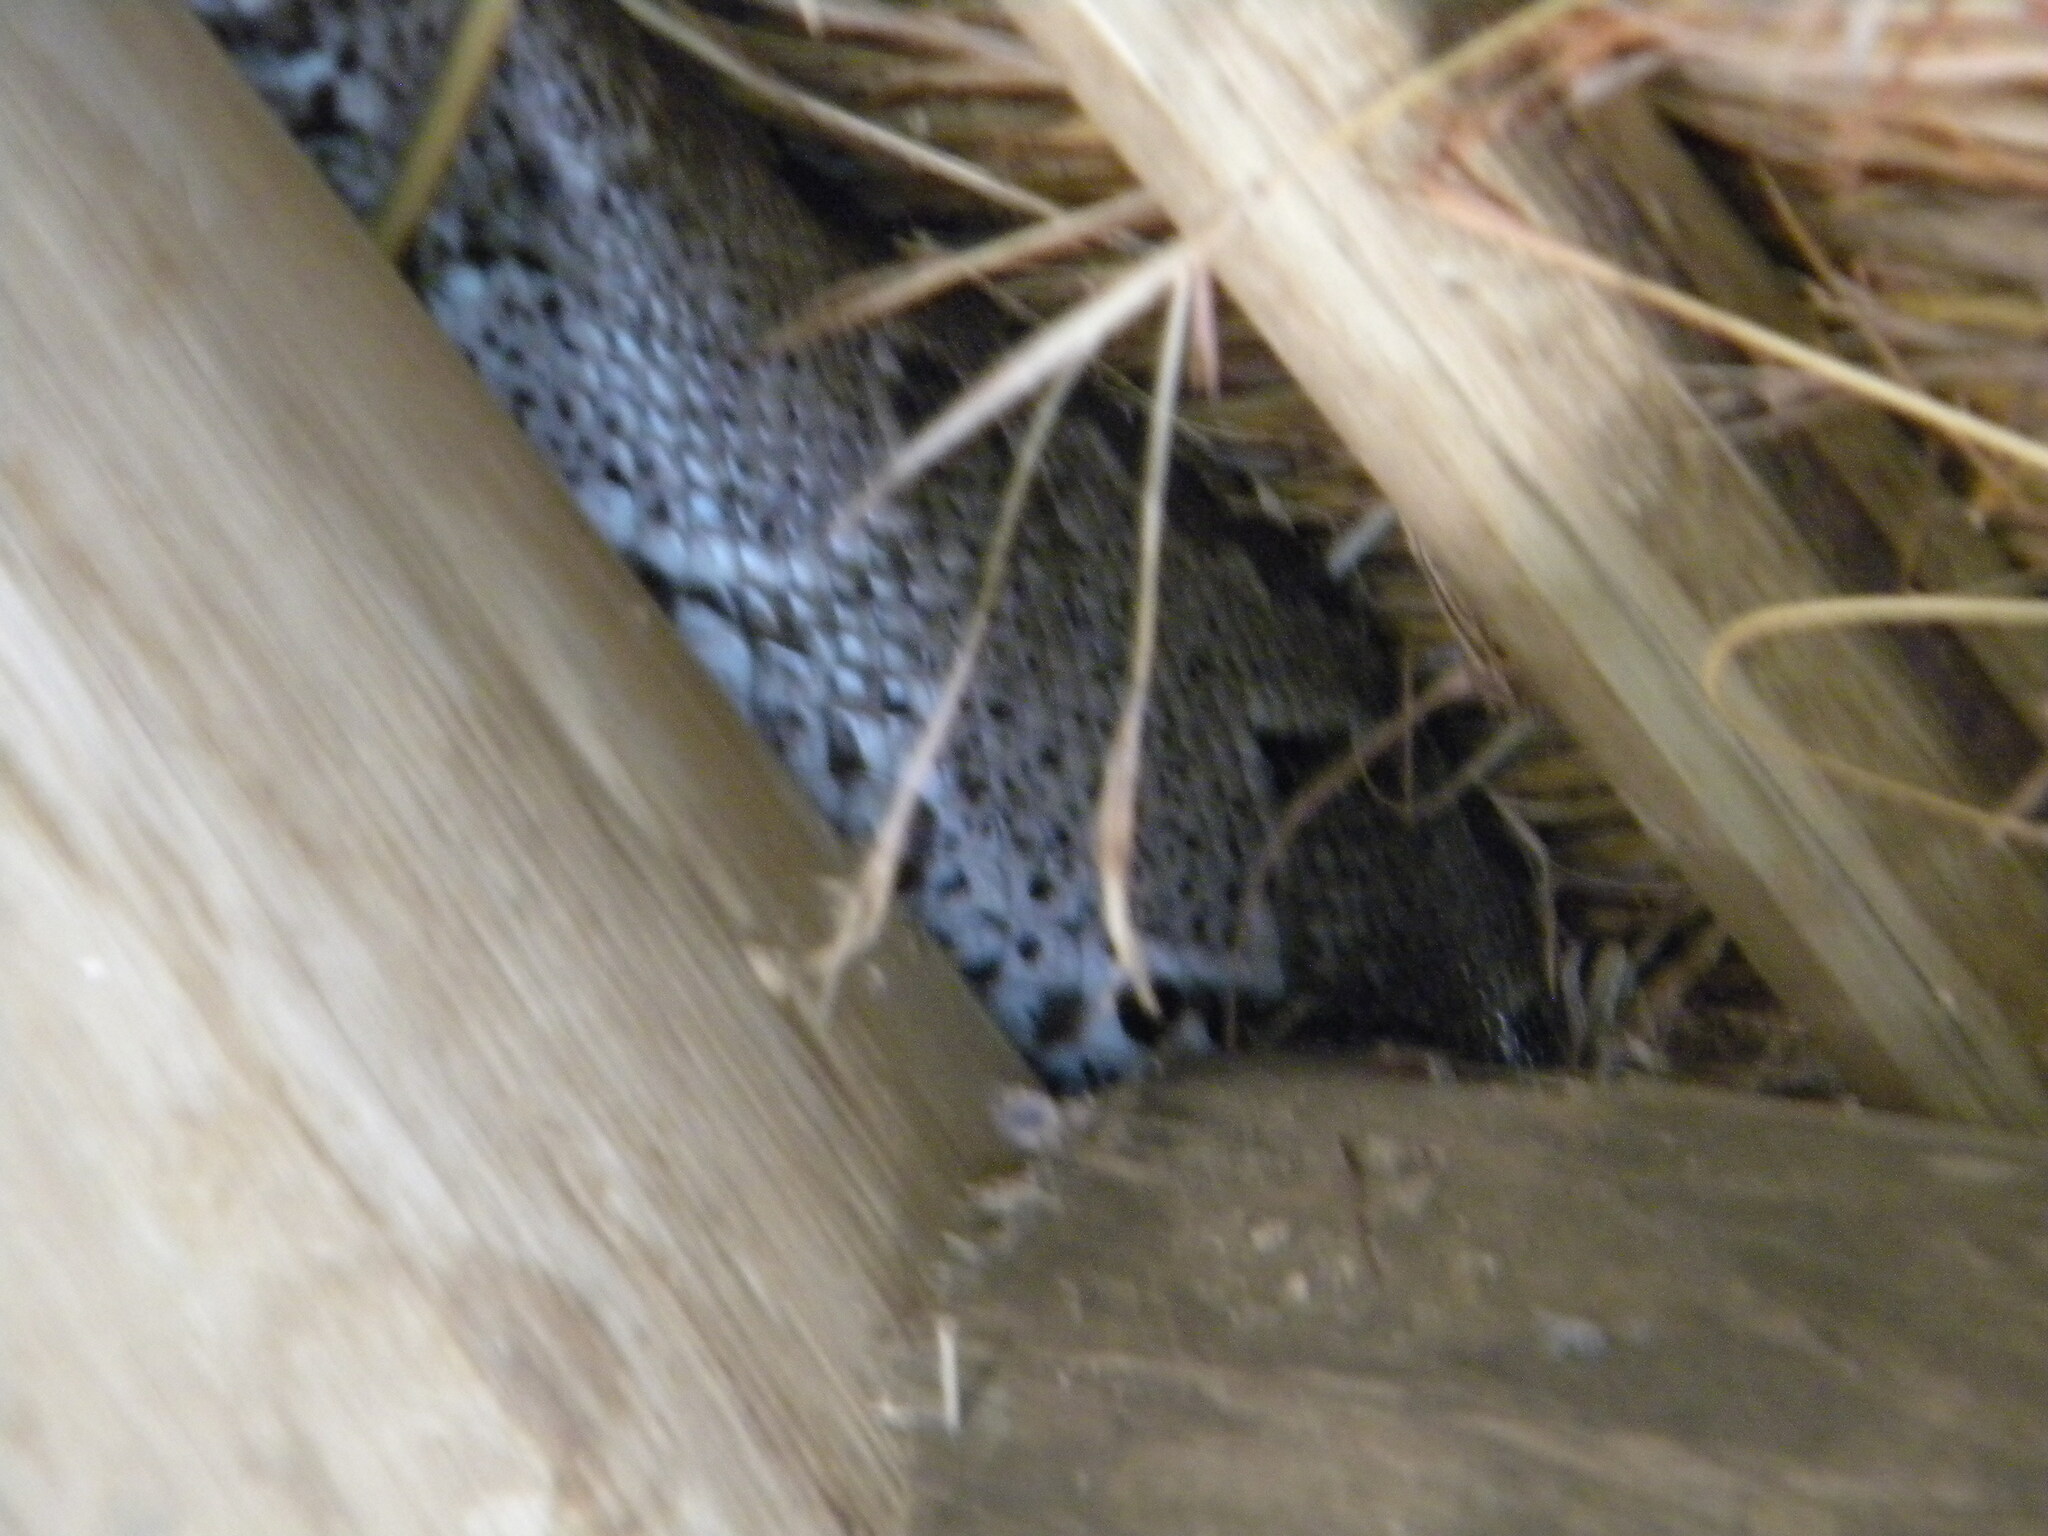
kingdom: Animalia
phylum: Chordata
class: Squamata
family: Pythonidae
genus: Python
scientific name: Python natalensis
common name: Southern african rock python
